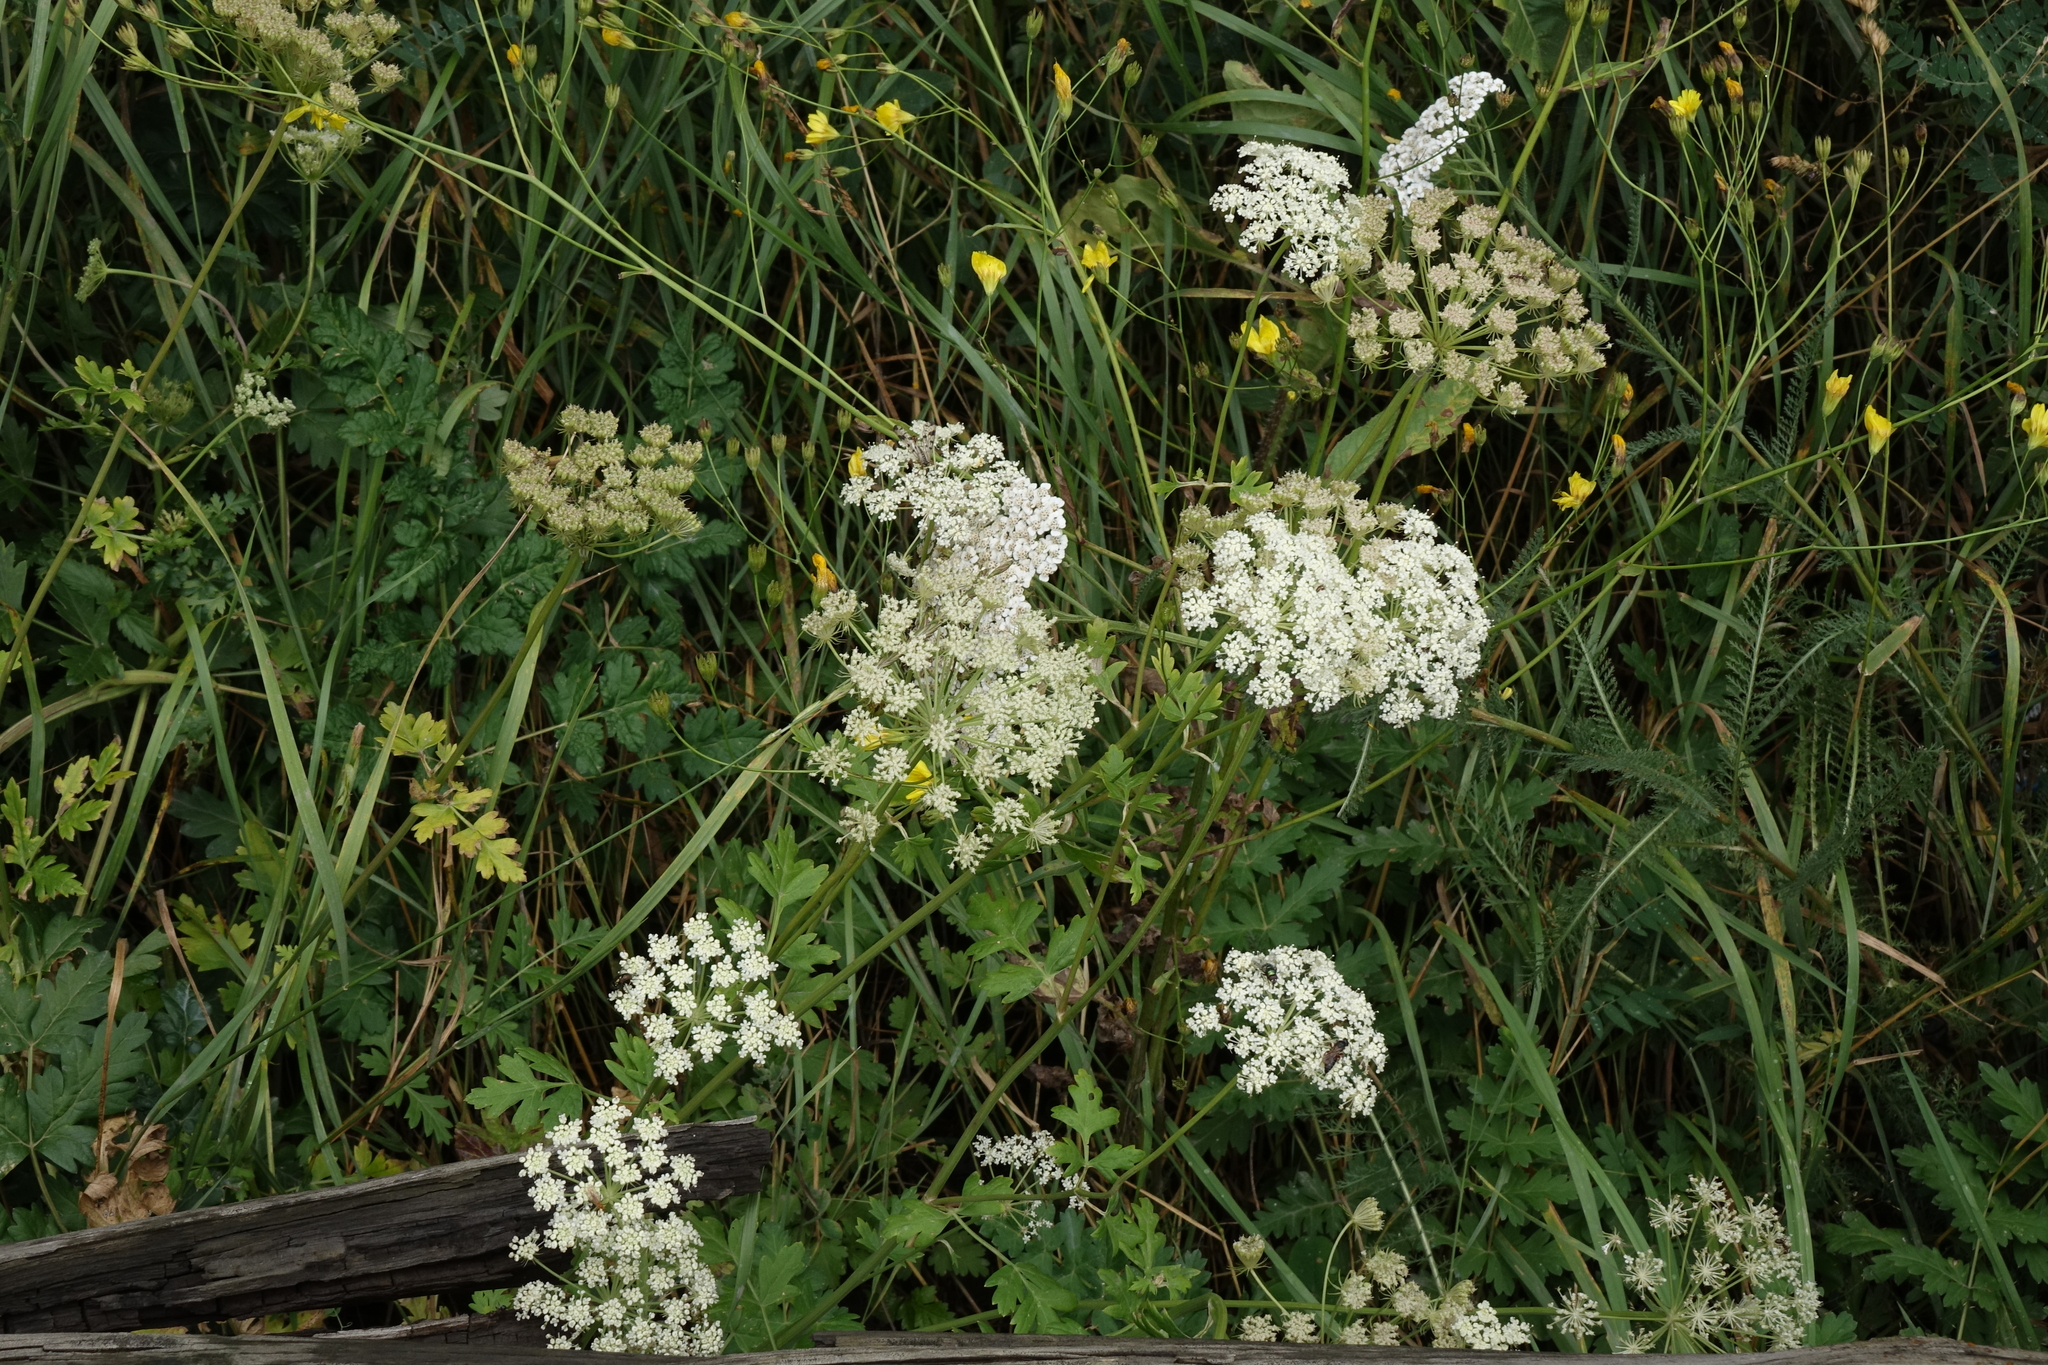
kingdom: Plantae
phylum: Tracheophyta
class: Magnoliopsida
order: Apiales
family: Apiaceae
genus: Seseli
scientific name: Seseli libanotis
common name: Mooncarrot
